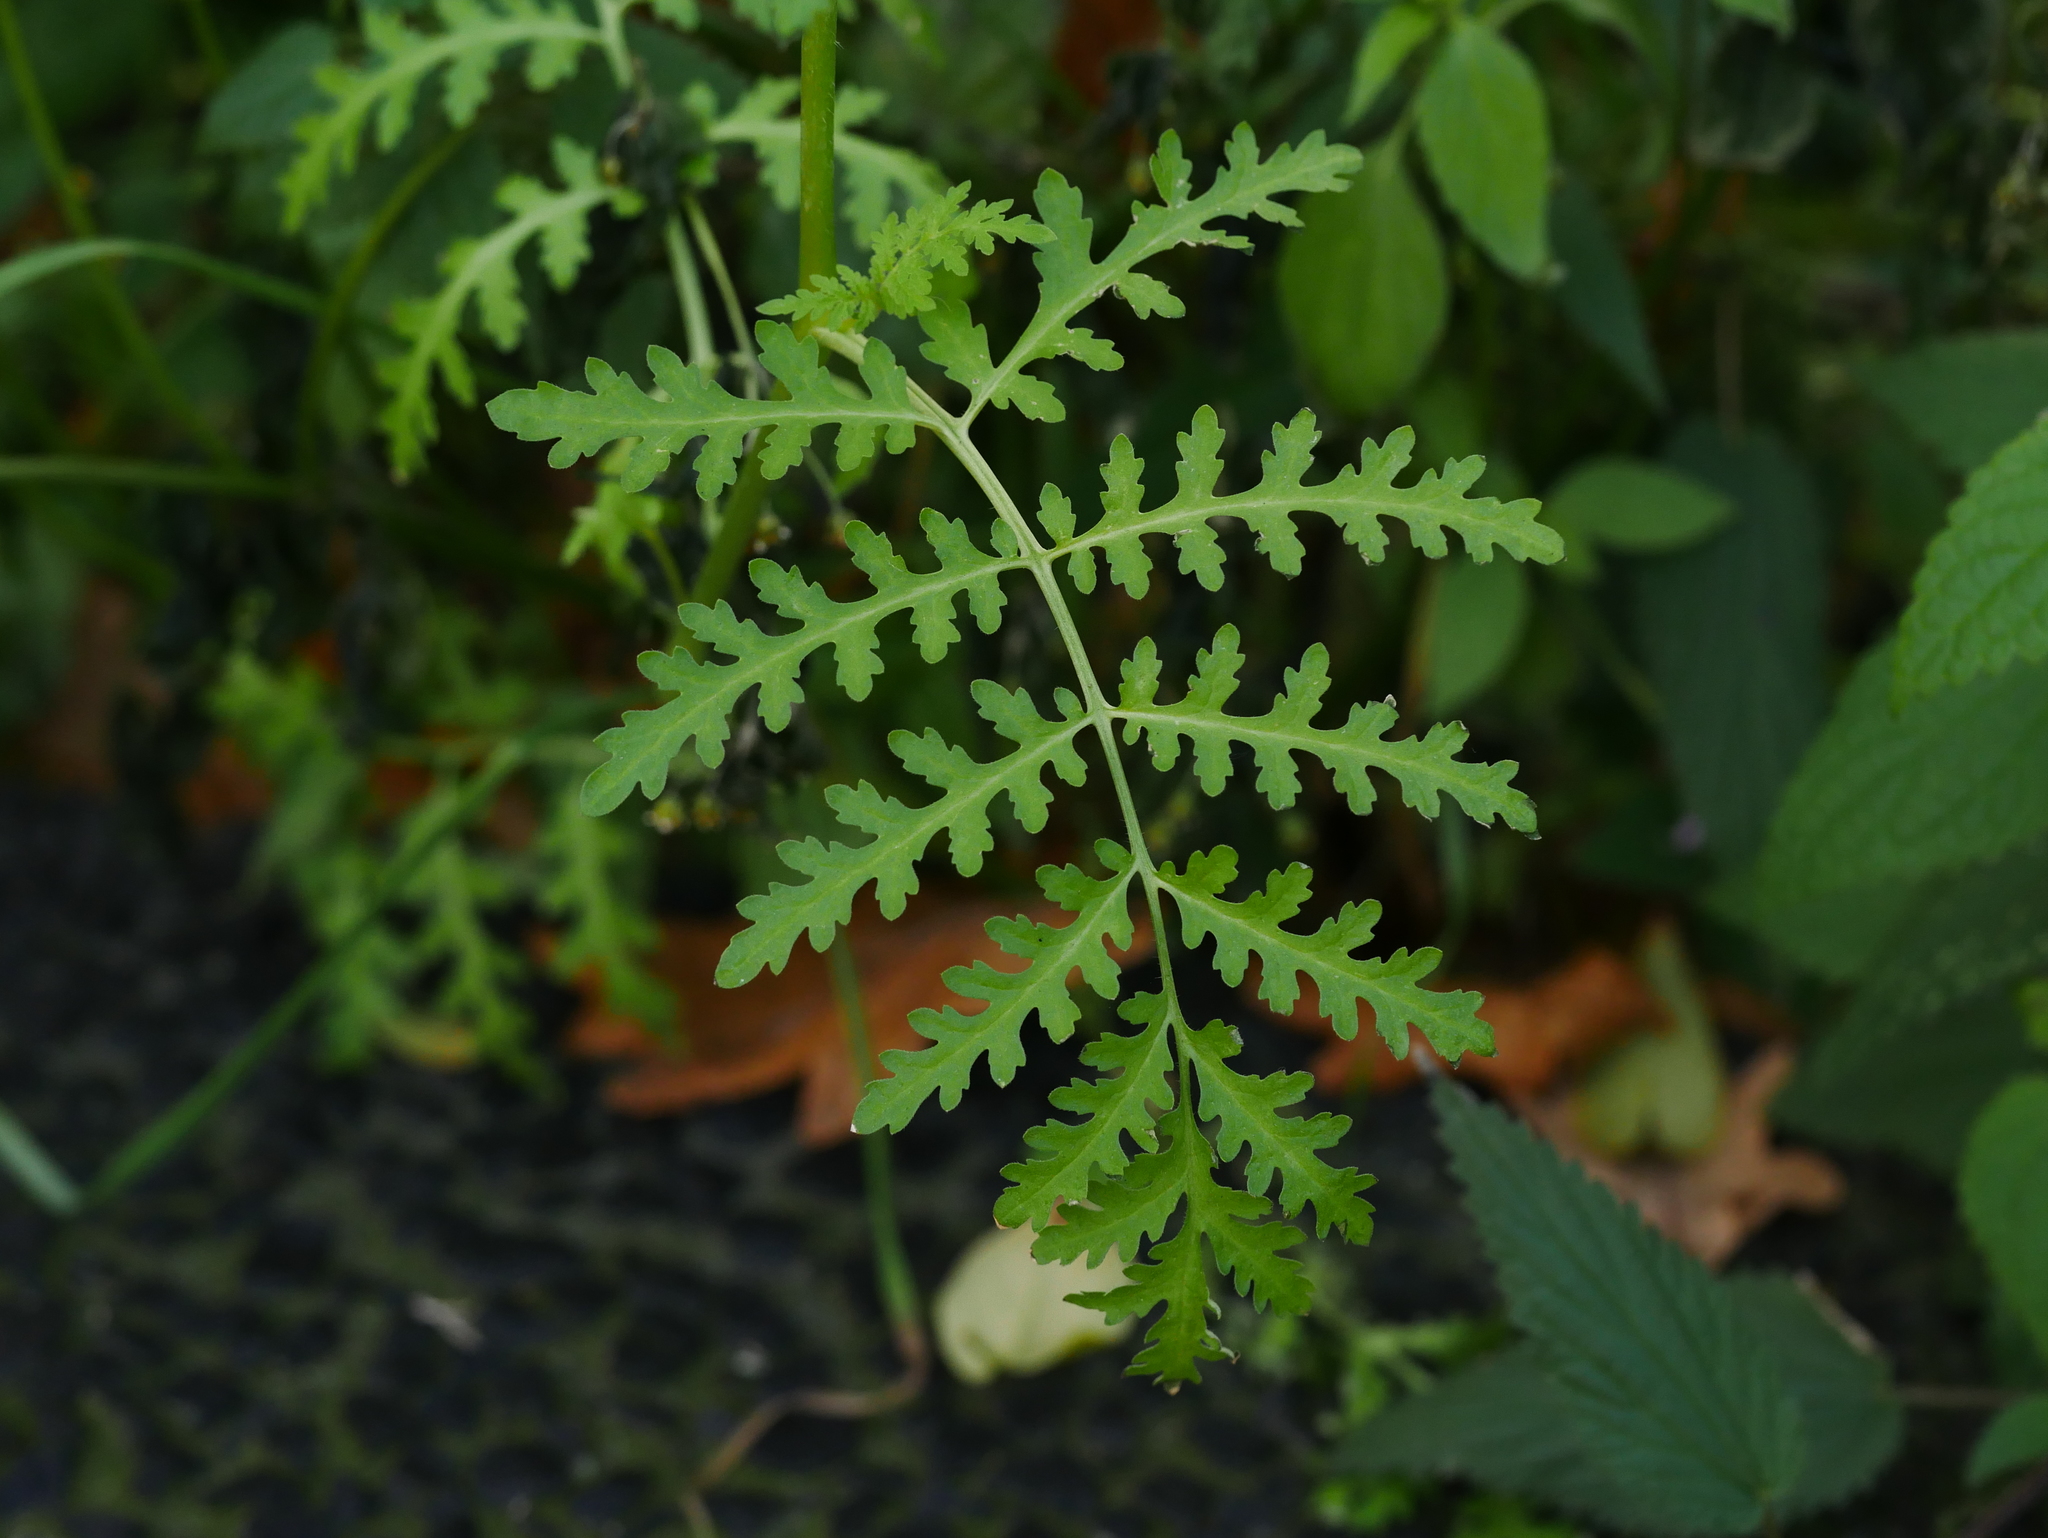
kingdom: Plantae
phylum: Tracheophyta
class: Magnoliopsida
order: Boraginales
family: Hydrophyllaceae
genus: Phacelia
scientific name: Phacelia tanacetifolia
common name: Phacelia
